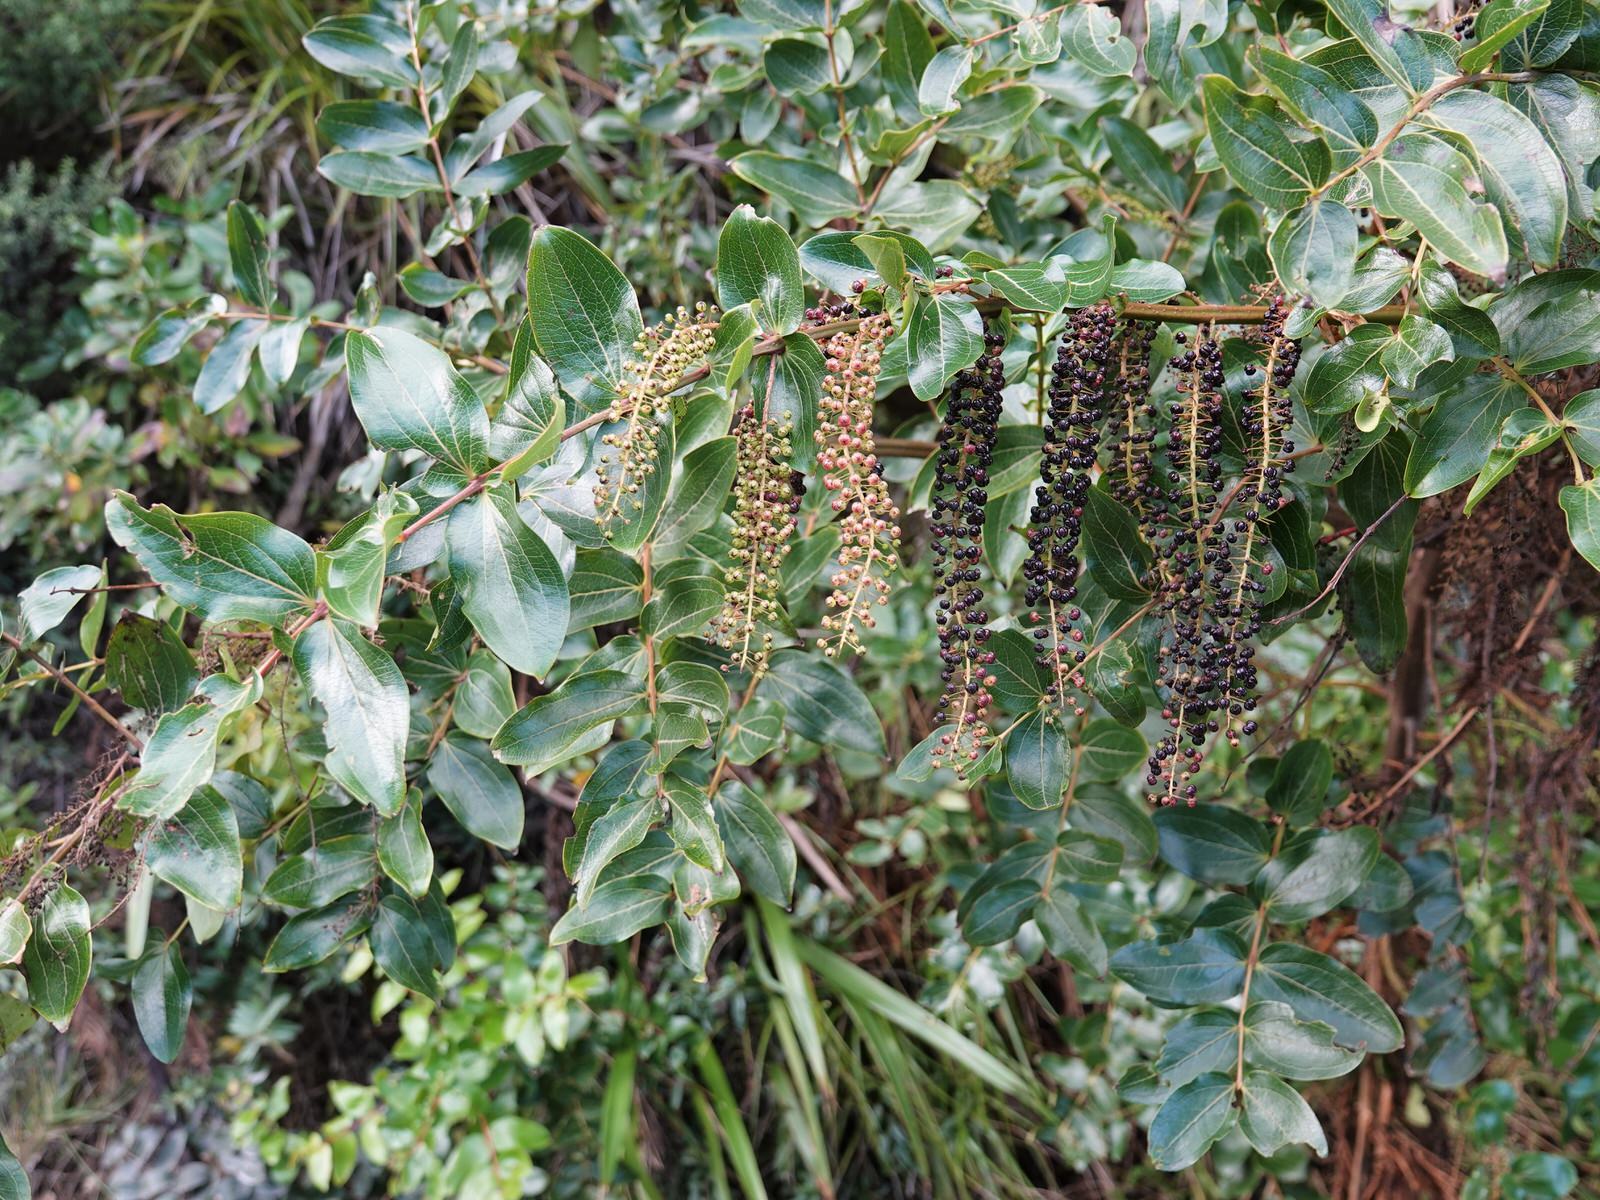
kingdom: Plantae
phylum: Tracheophyta
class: Magnoliopsida
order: Cucurbitales
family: Coriariaceae
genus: Coriaria
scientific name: Coriaria arborea
